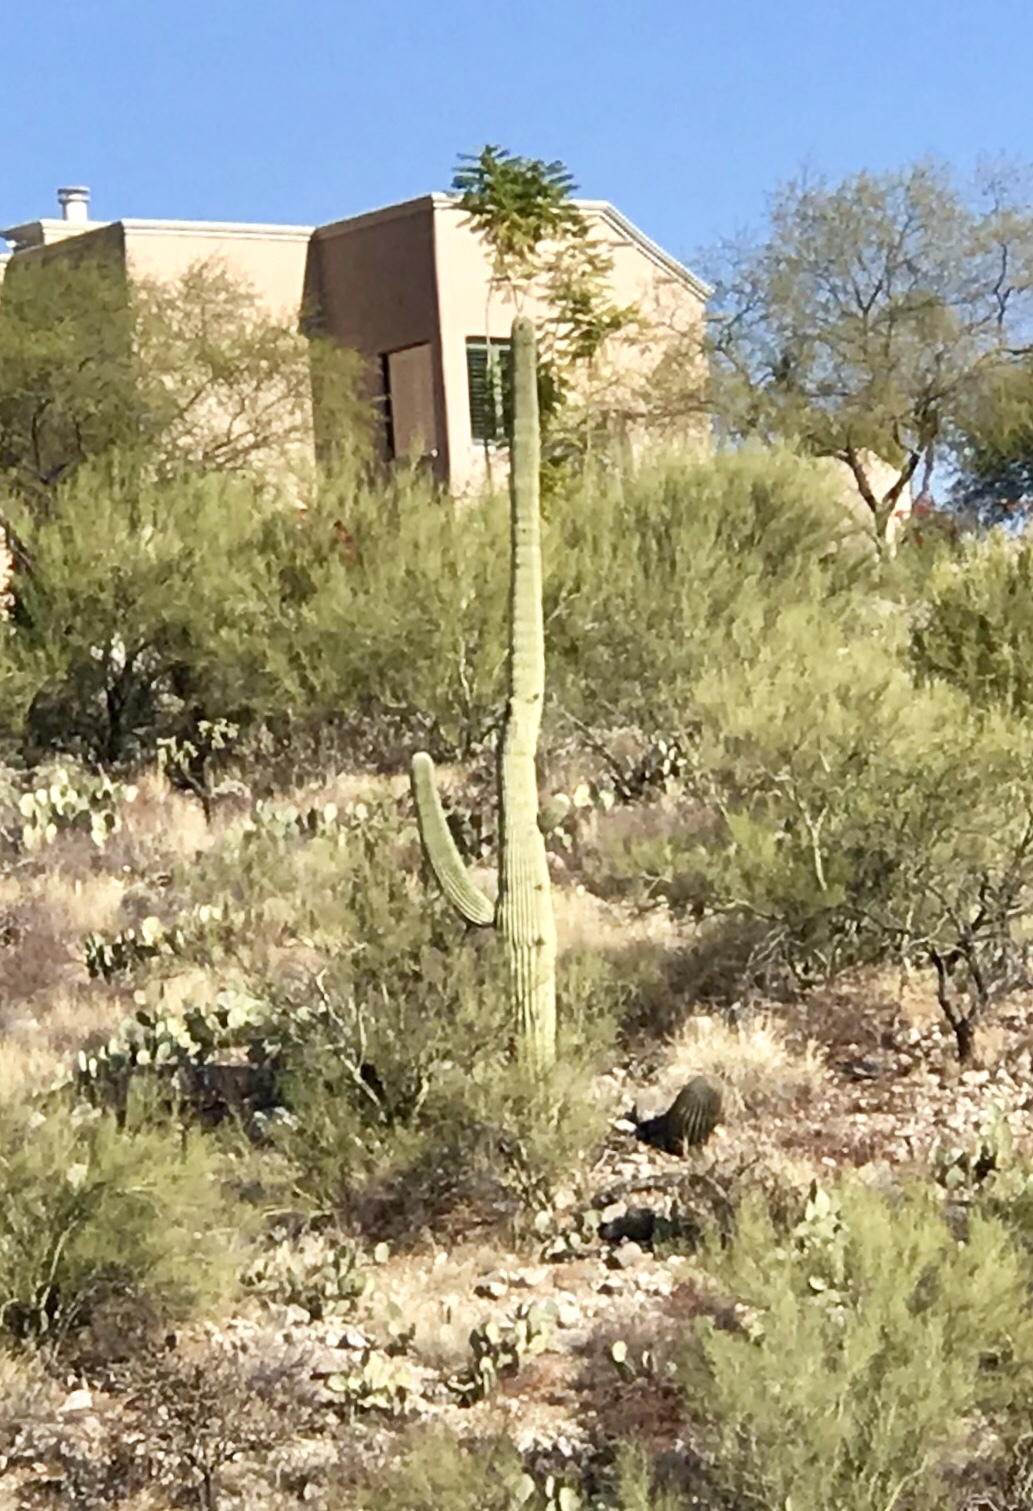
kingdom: Plantae
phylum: Tracheophyta
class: Magnoliopsida
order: Caryophyllales
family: Cactaceae
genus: Carnegiea
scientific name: Carnegiea gigantea
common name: Saguaro
